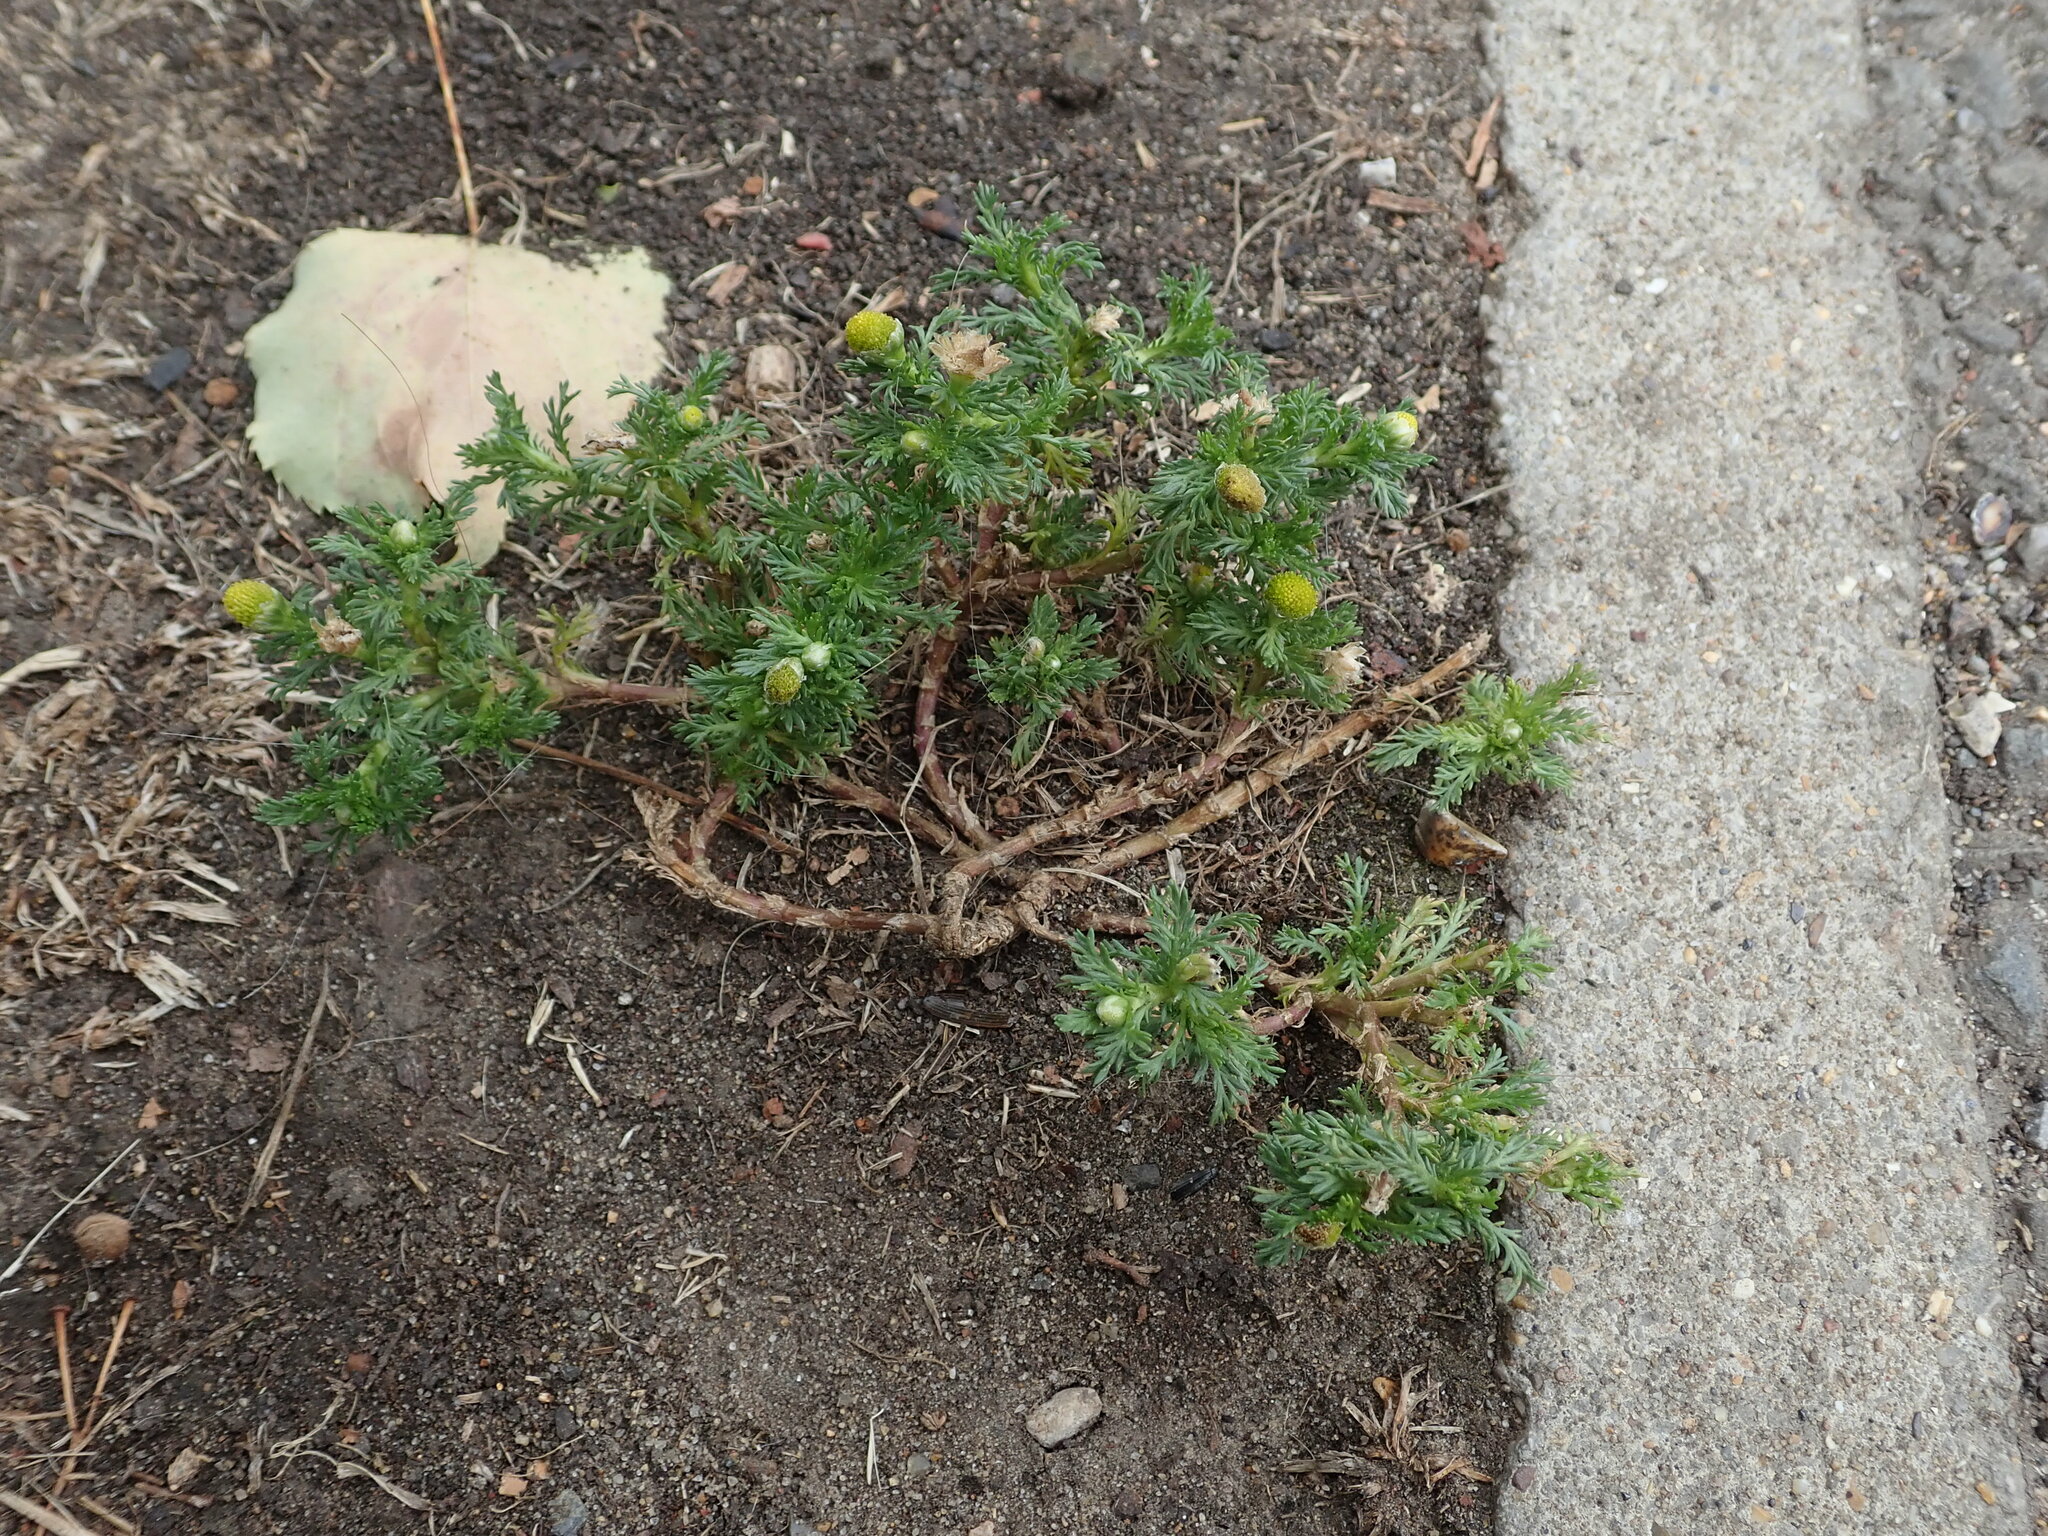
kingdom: Plantae
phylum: Tracheophyta
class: Magnoliopsida
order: Asterales
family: Asteraceae
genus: Matricaria
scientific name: Matricaria discoidea
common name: Disc mayweed
